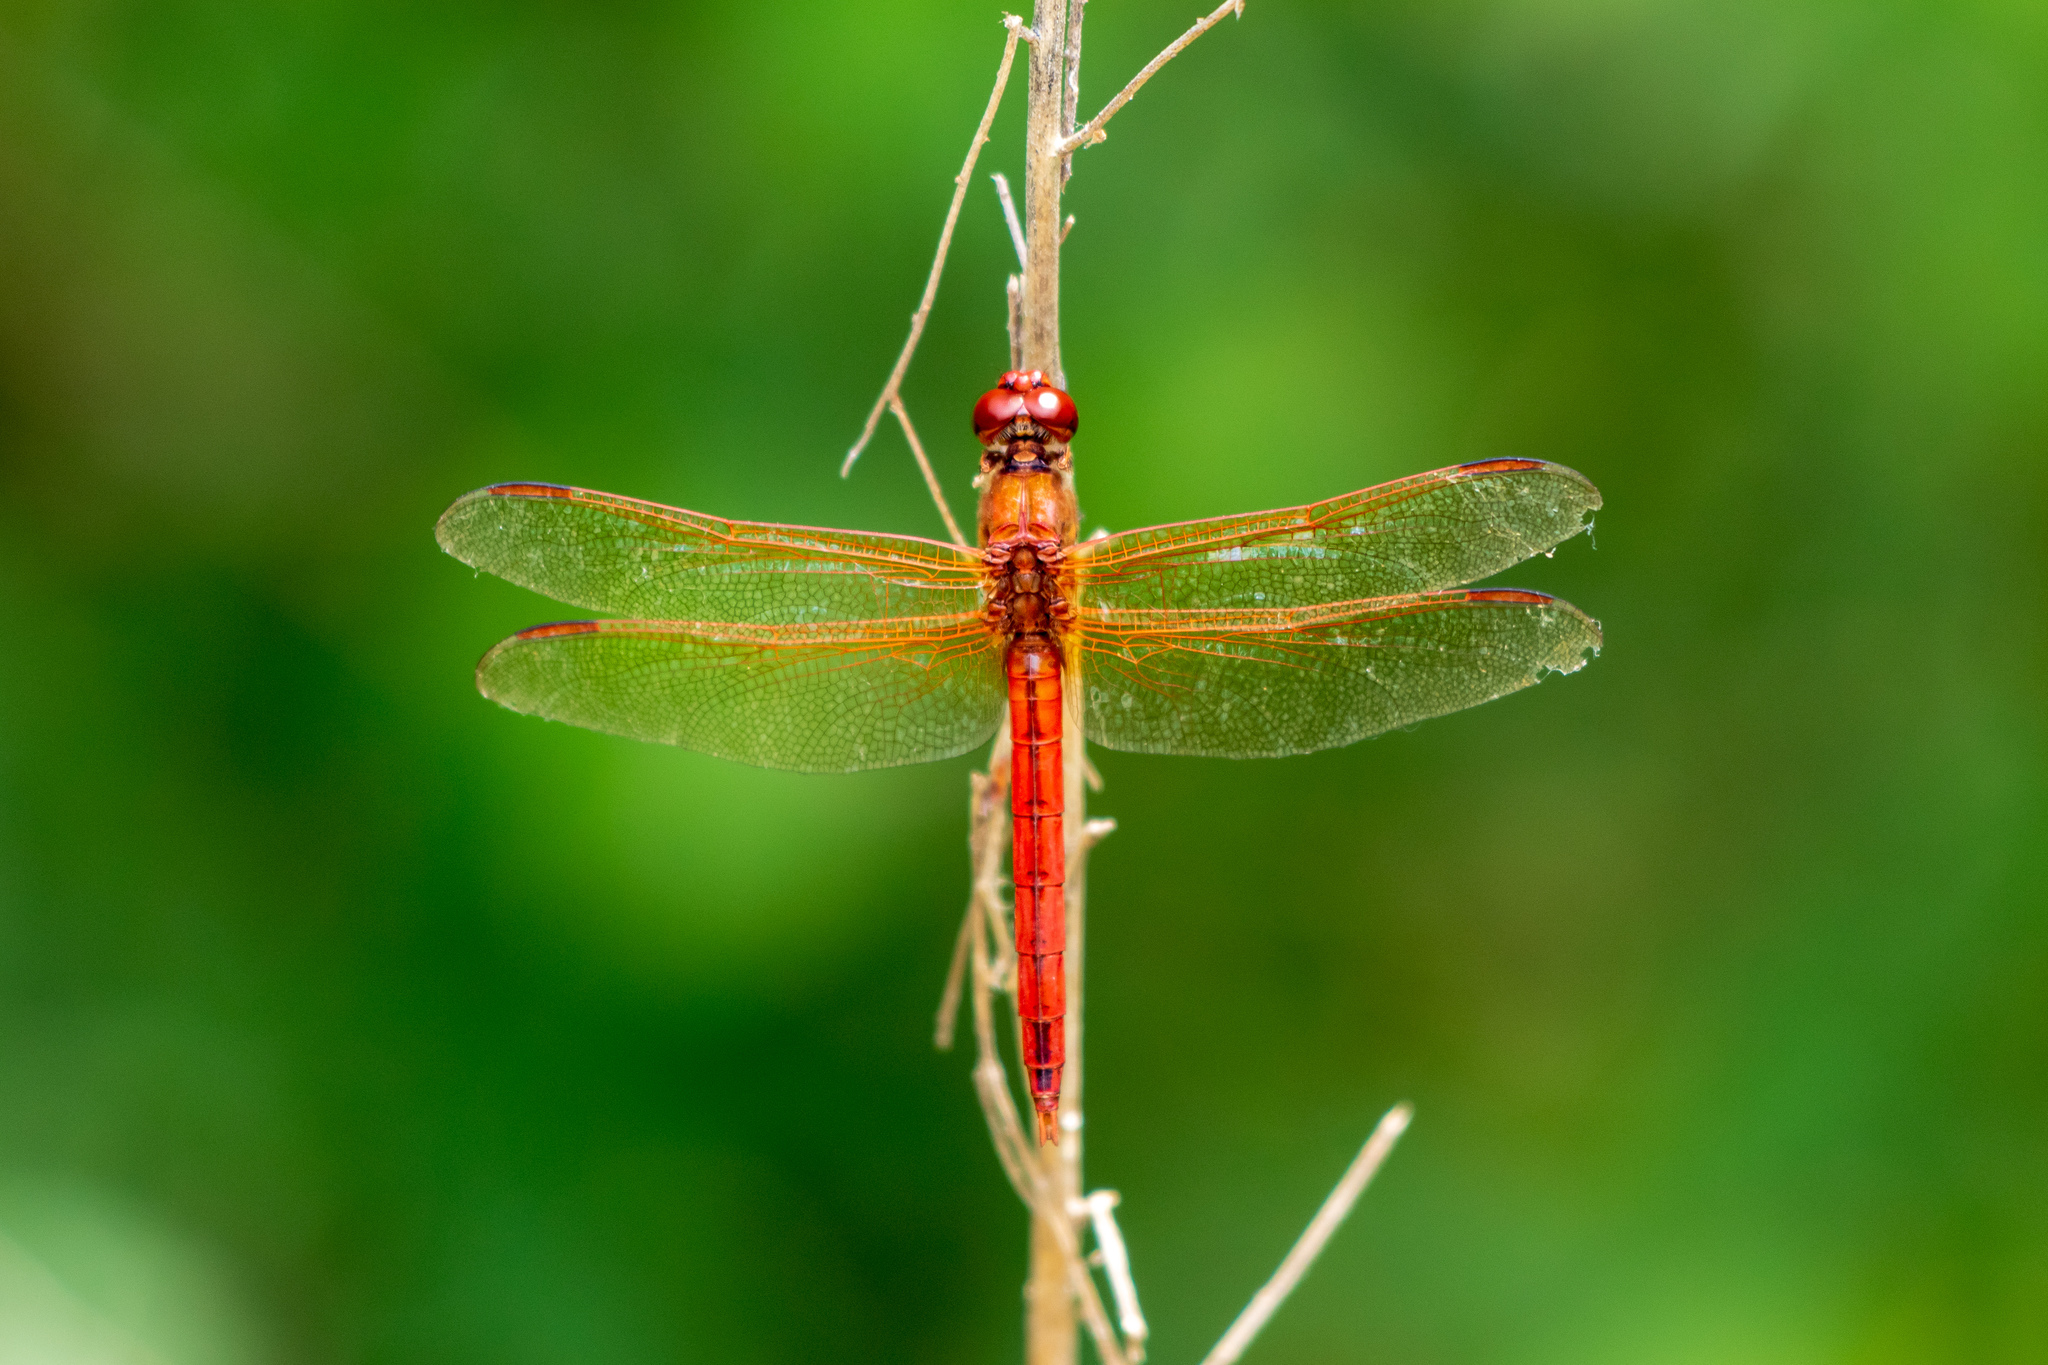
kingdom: Animalia
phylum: Arthropoda
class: Insecta
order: Odonata
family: Libellulidae
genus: Libellula
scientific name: Libellula needhami
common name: Needham's skimmer
